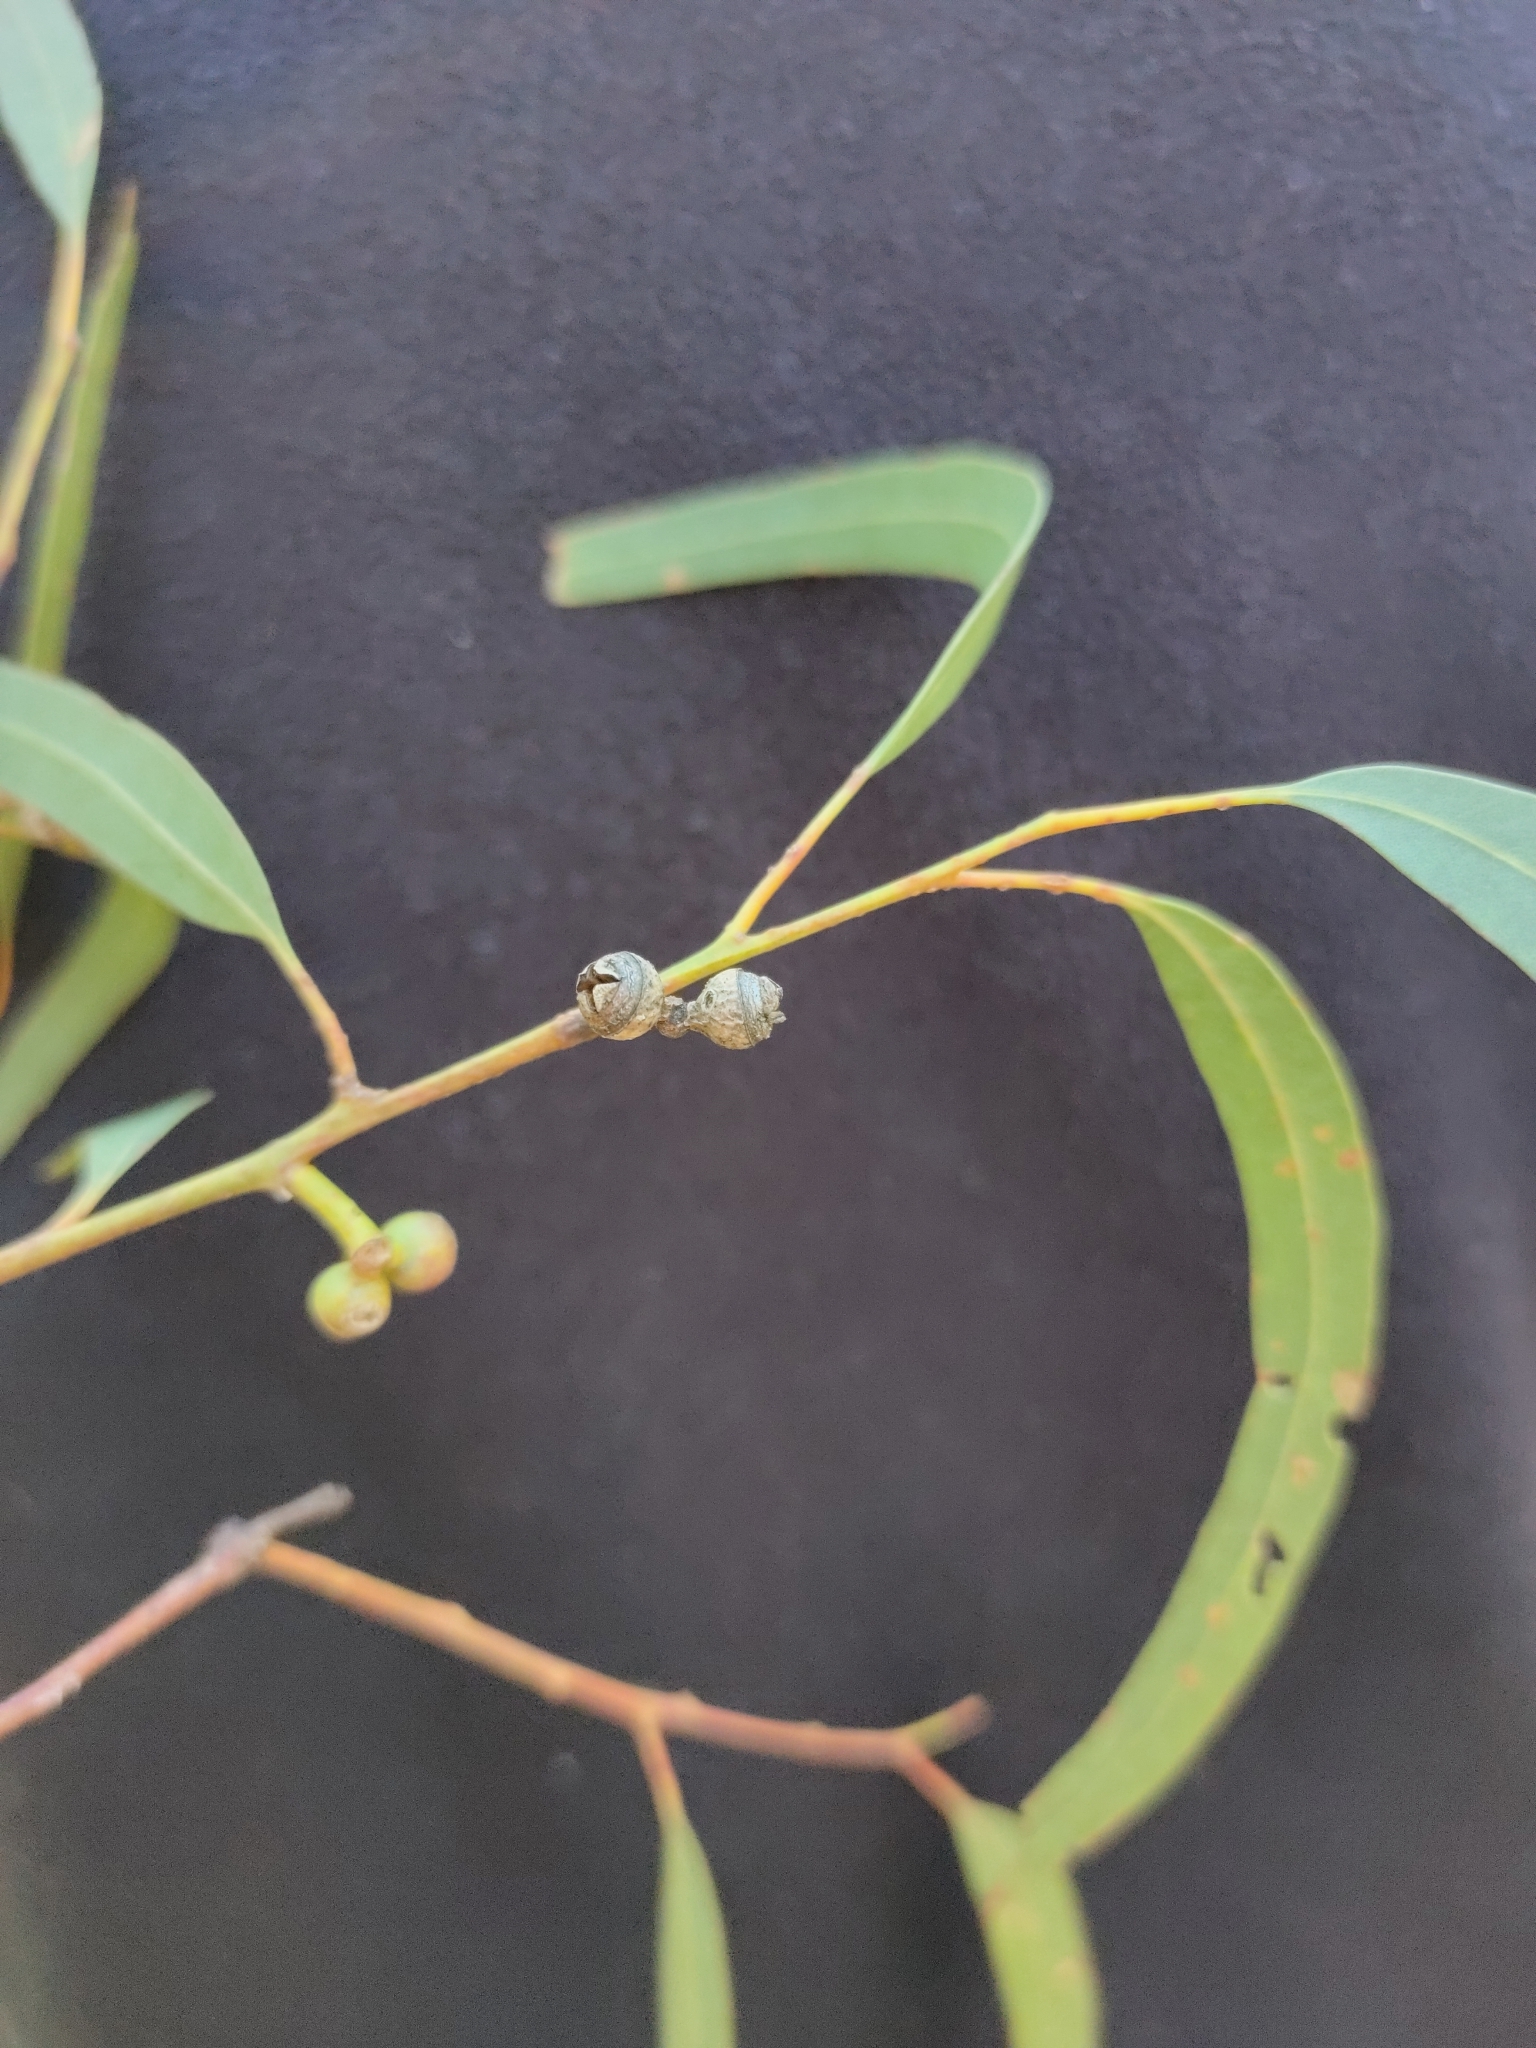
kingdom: Plantae
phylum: Tracheophyta
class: Magnoliopsida
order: Myrtales
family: Myrtaceae
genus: Eucalyptus
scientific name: Eucalyptus exserta
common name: Peppermint-bendo
